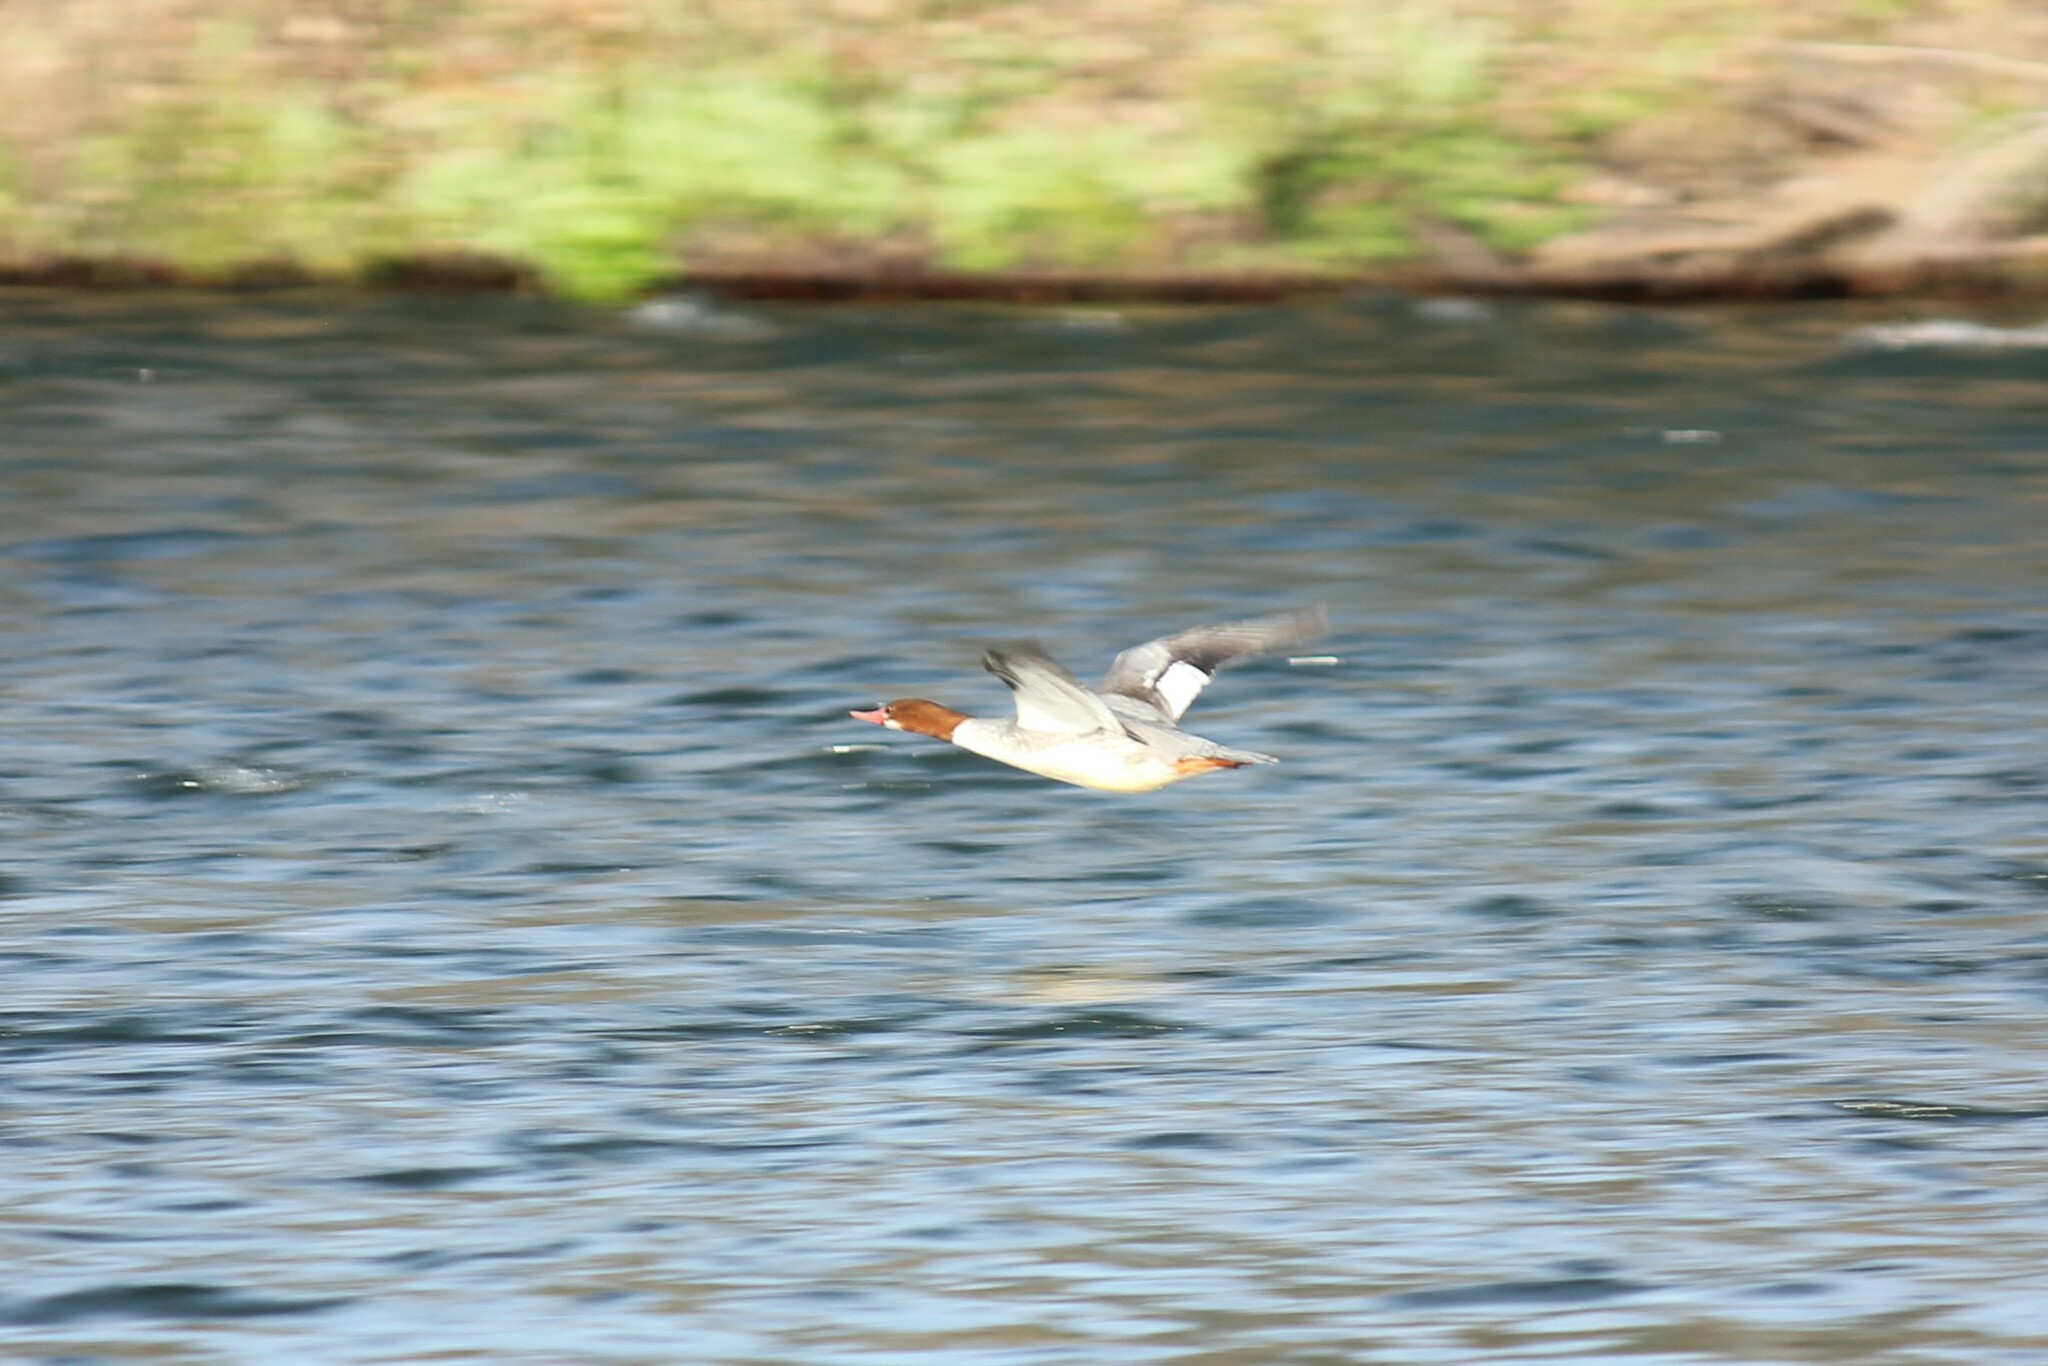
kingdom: Animalia
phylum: Chordata
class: Aves
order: Anseriformes
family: Anatidae
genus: Mergus
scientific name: Mergus merganser
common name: Common merganser
